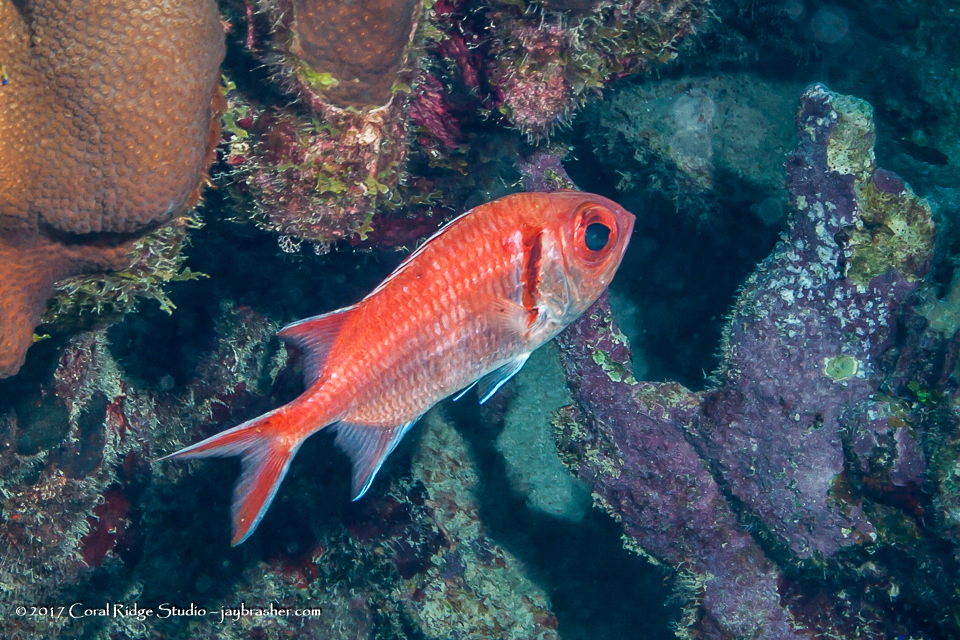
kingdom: Animalia
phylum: Chordata
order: Beryciformes
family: Holocentridae
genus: Myripristis
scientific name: Myripristis jacobus
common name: Blackbar soldierfish
